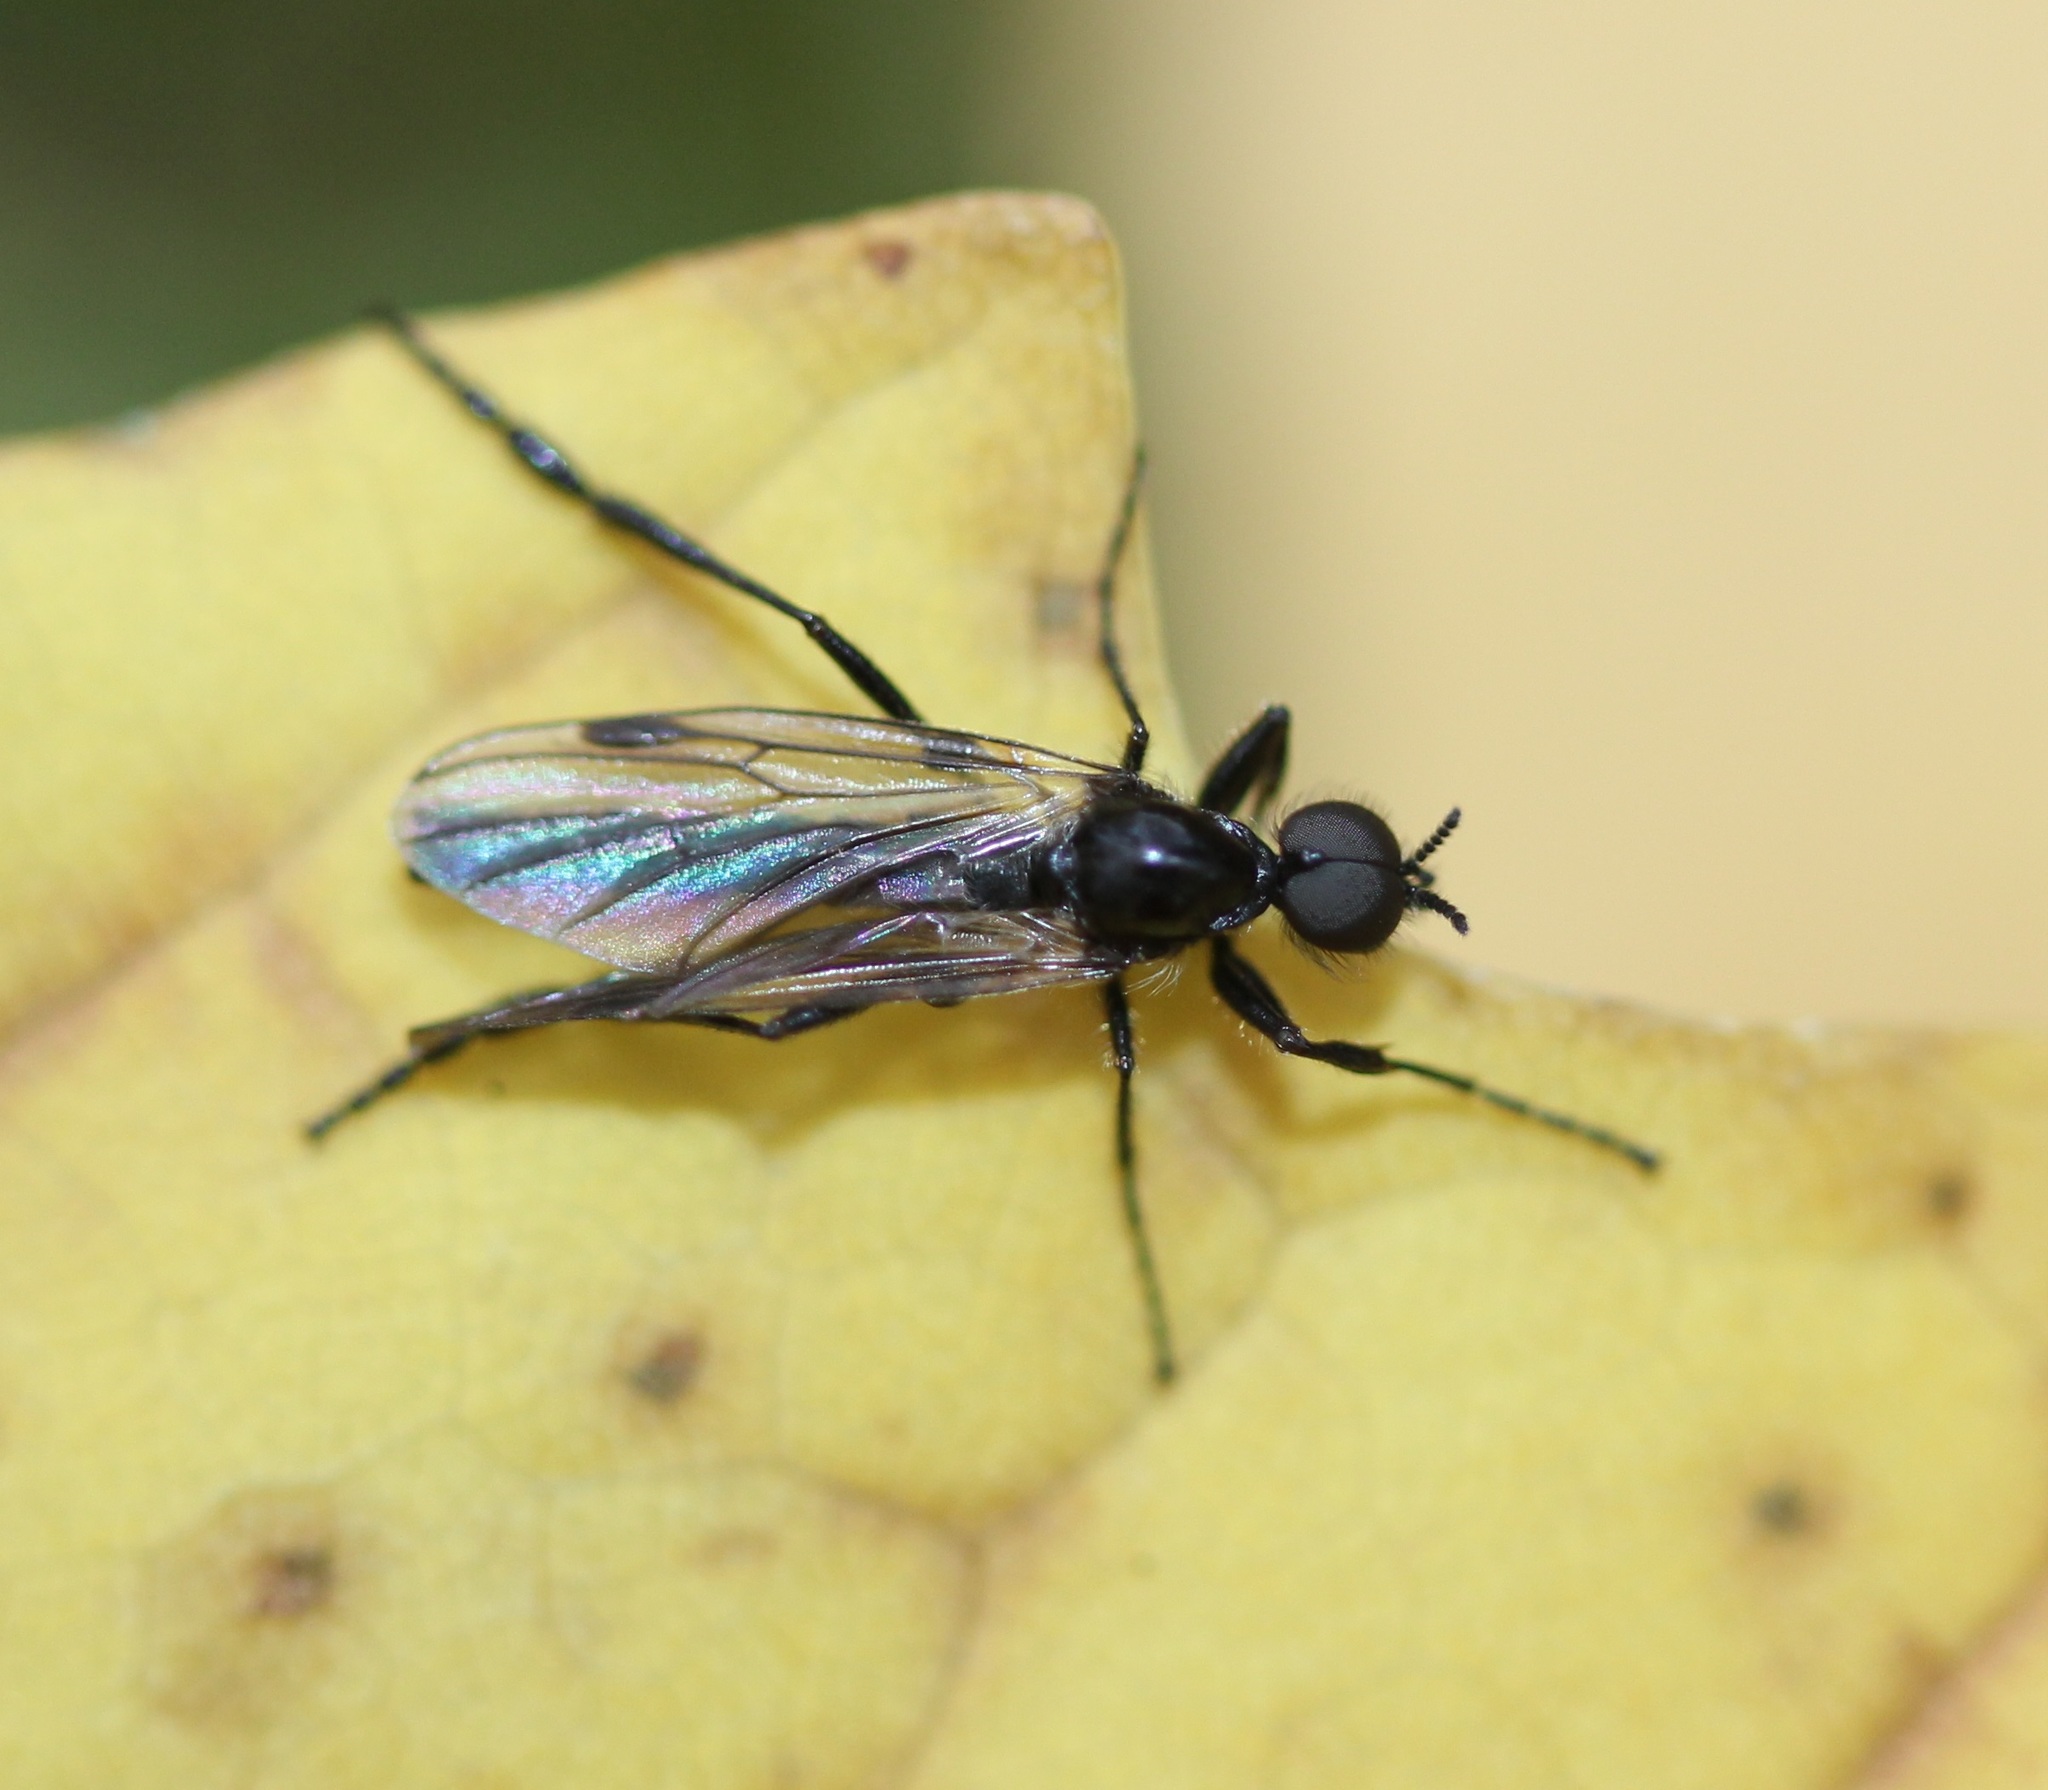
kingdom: Animalia
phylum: Arthropoda
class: Insecta
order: Diptera
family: Bibionidae
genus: Bibio
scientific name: Bibio longipes
